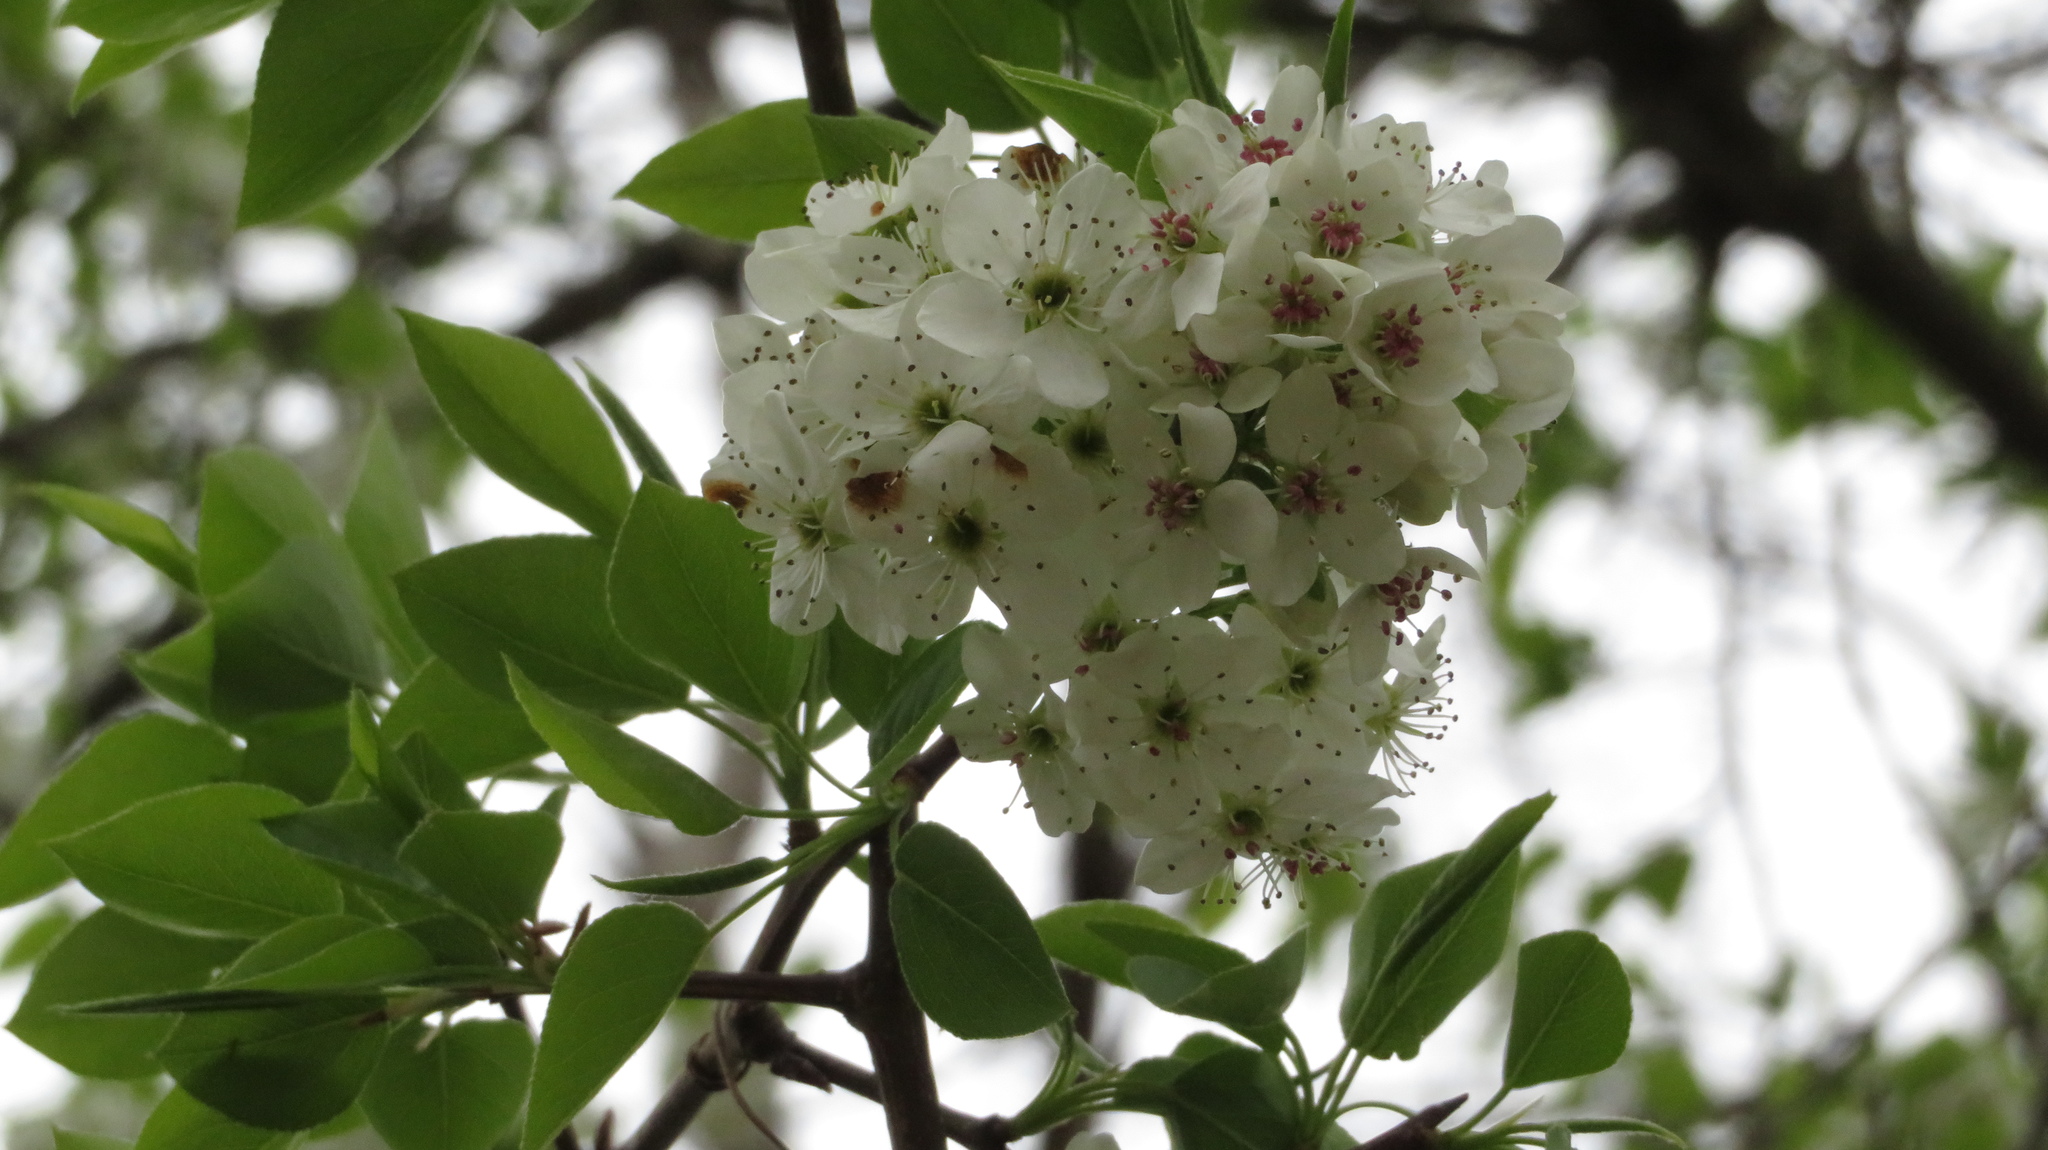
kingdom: Plantae
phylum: Tracheophyta
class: Magnoliopsida
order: Rosales
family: Rosaceae
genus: Pyrus
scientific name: Pyrus calleryana
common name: Callery pear
